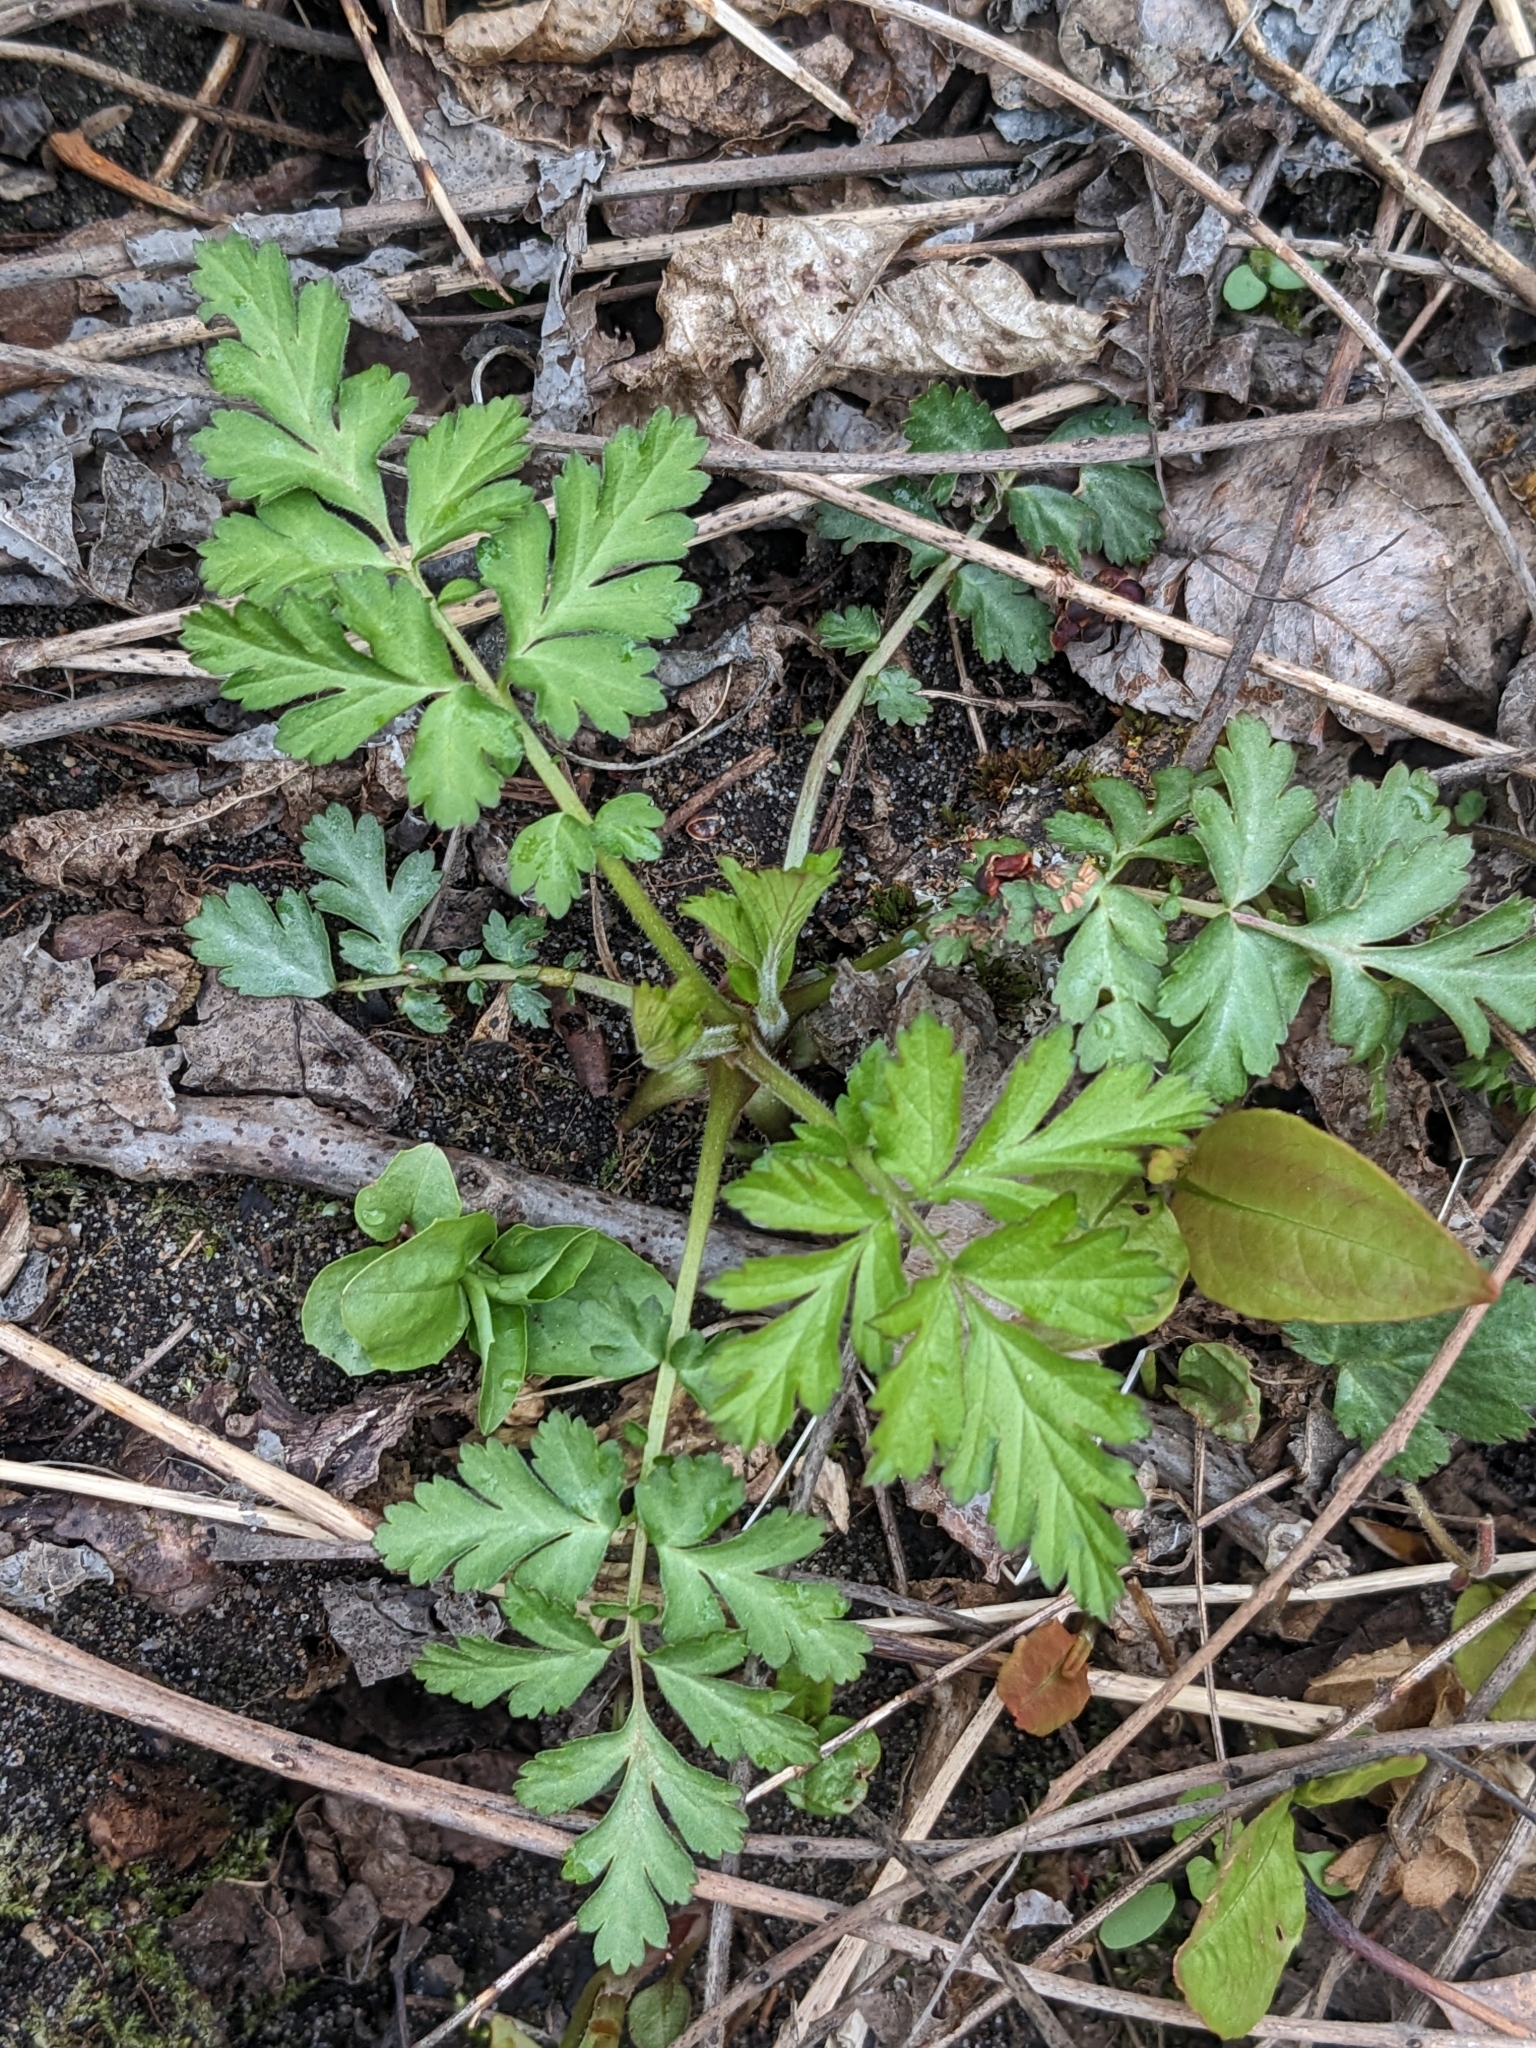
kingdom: Plantae
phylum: Tracheophyta
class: Magnoliopsida
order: Rosales
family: Rosaceae
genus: Geum
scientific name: Geum canadense
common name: White avens
